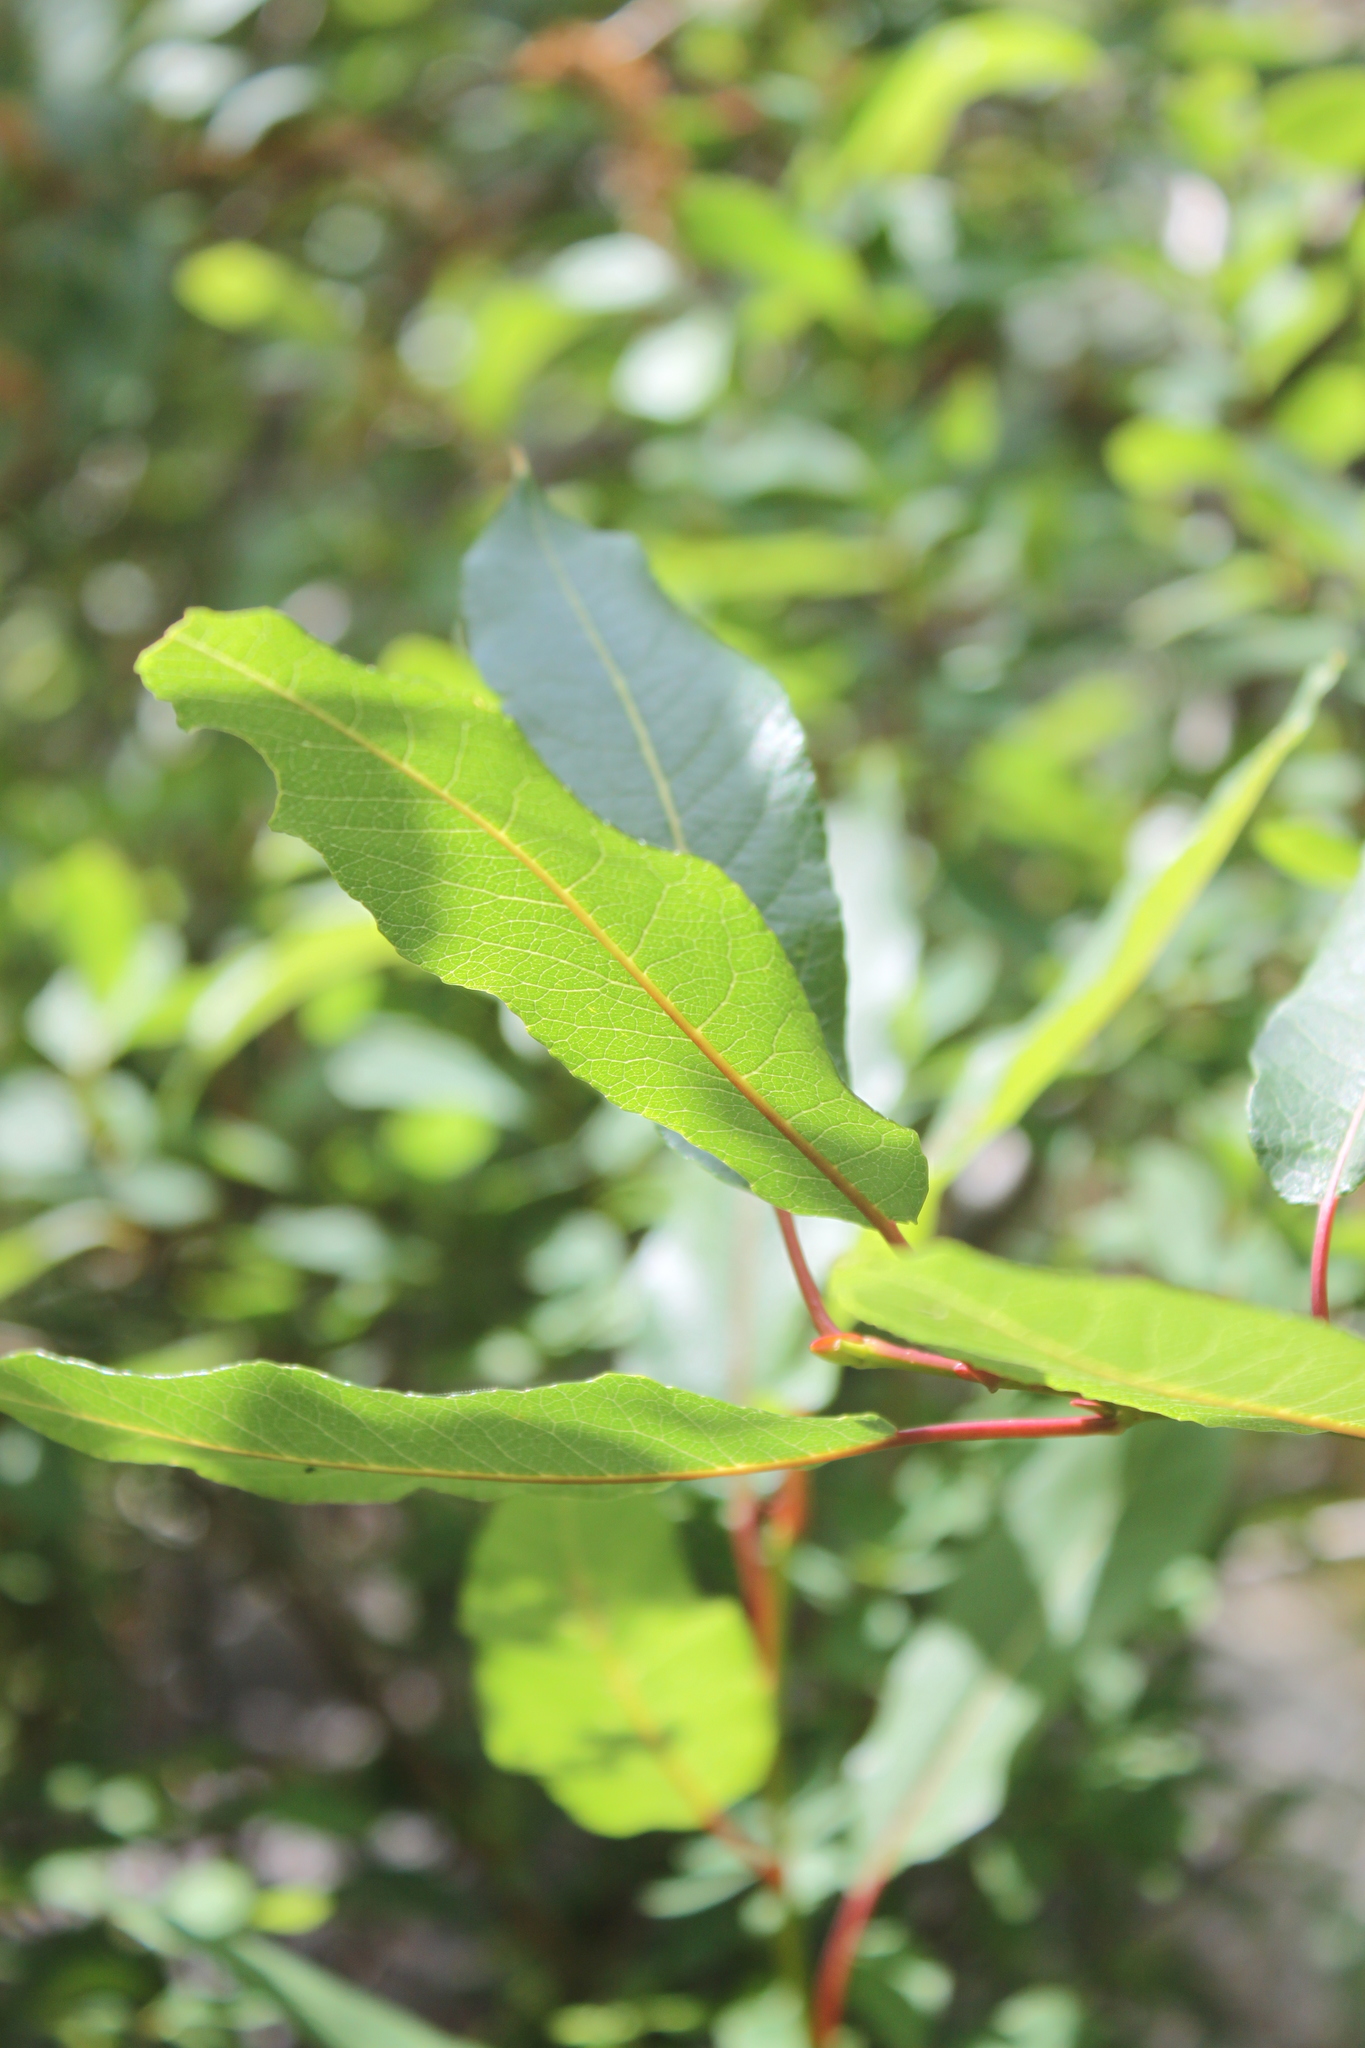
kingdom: Plantae
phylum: Tracheophyta
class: Magnoliopsida
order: Malpighiales
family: Salicaceae
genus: Salix
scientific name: Salix pyrifolia
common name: Balsam willow
